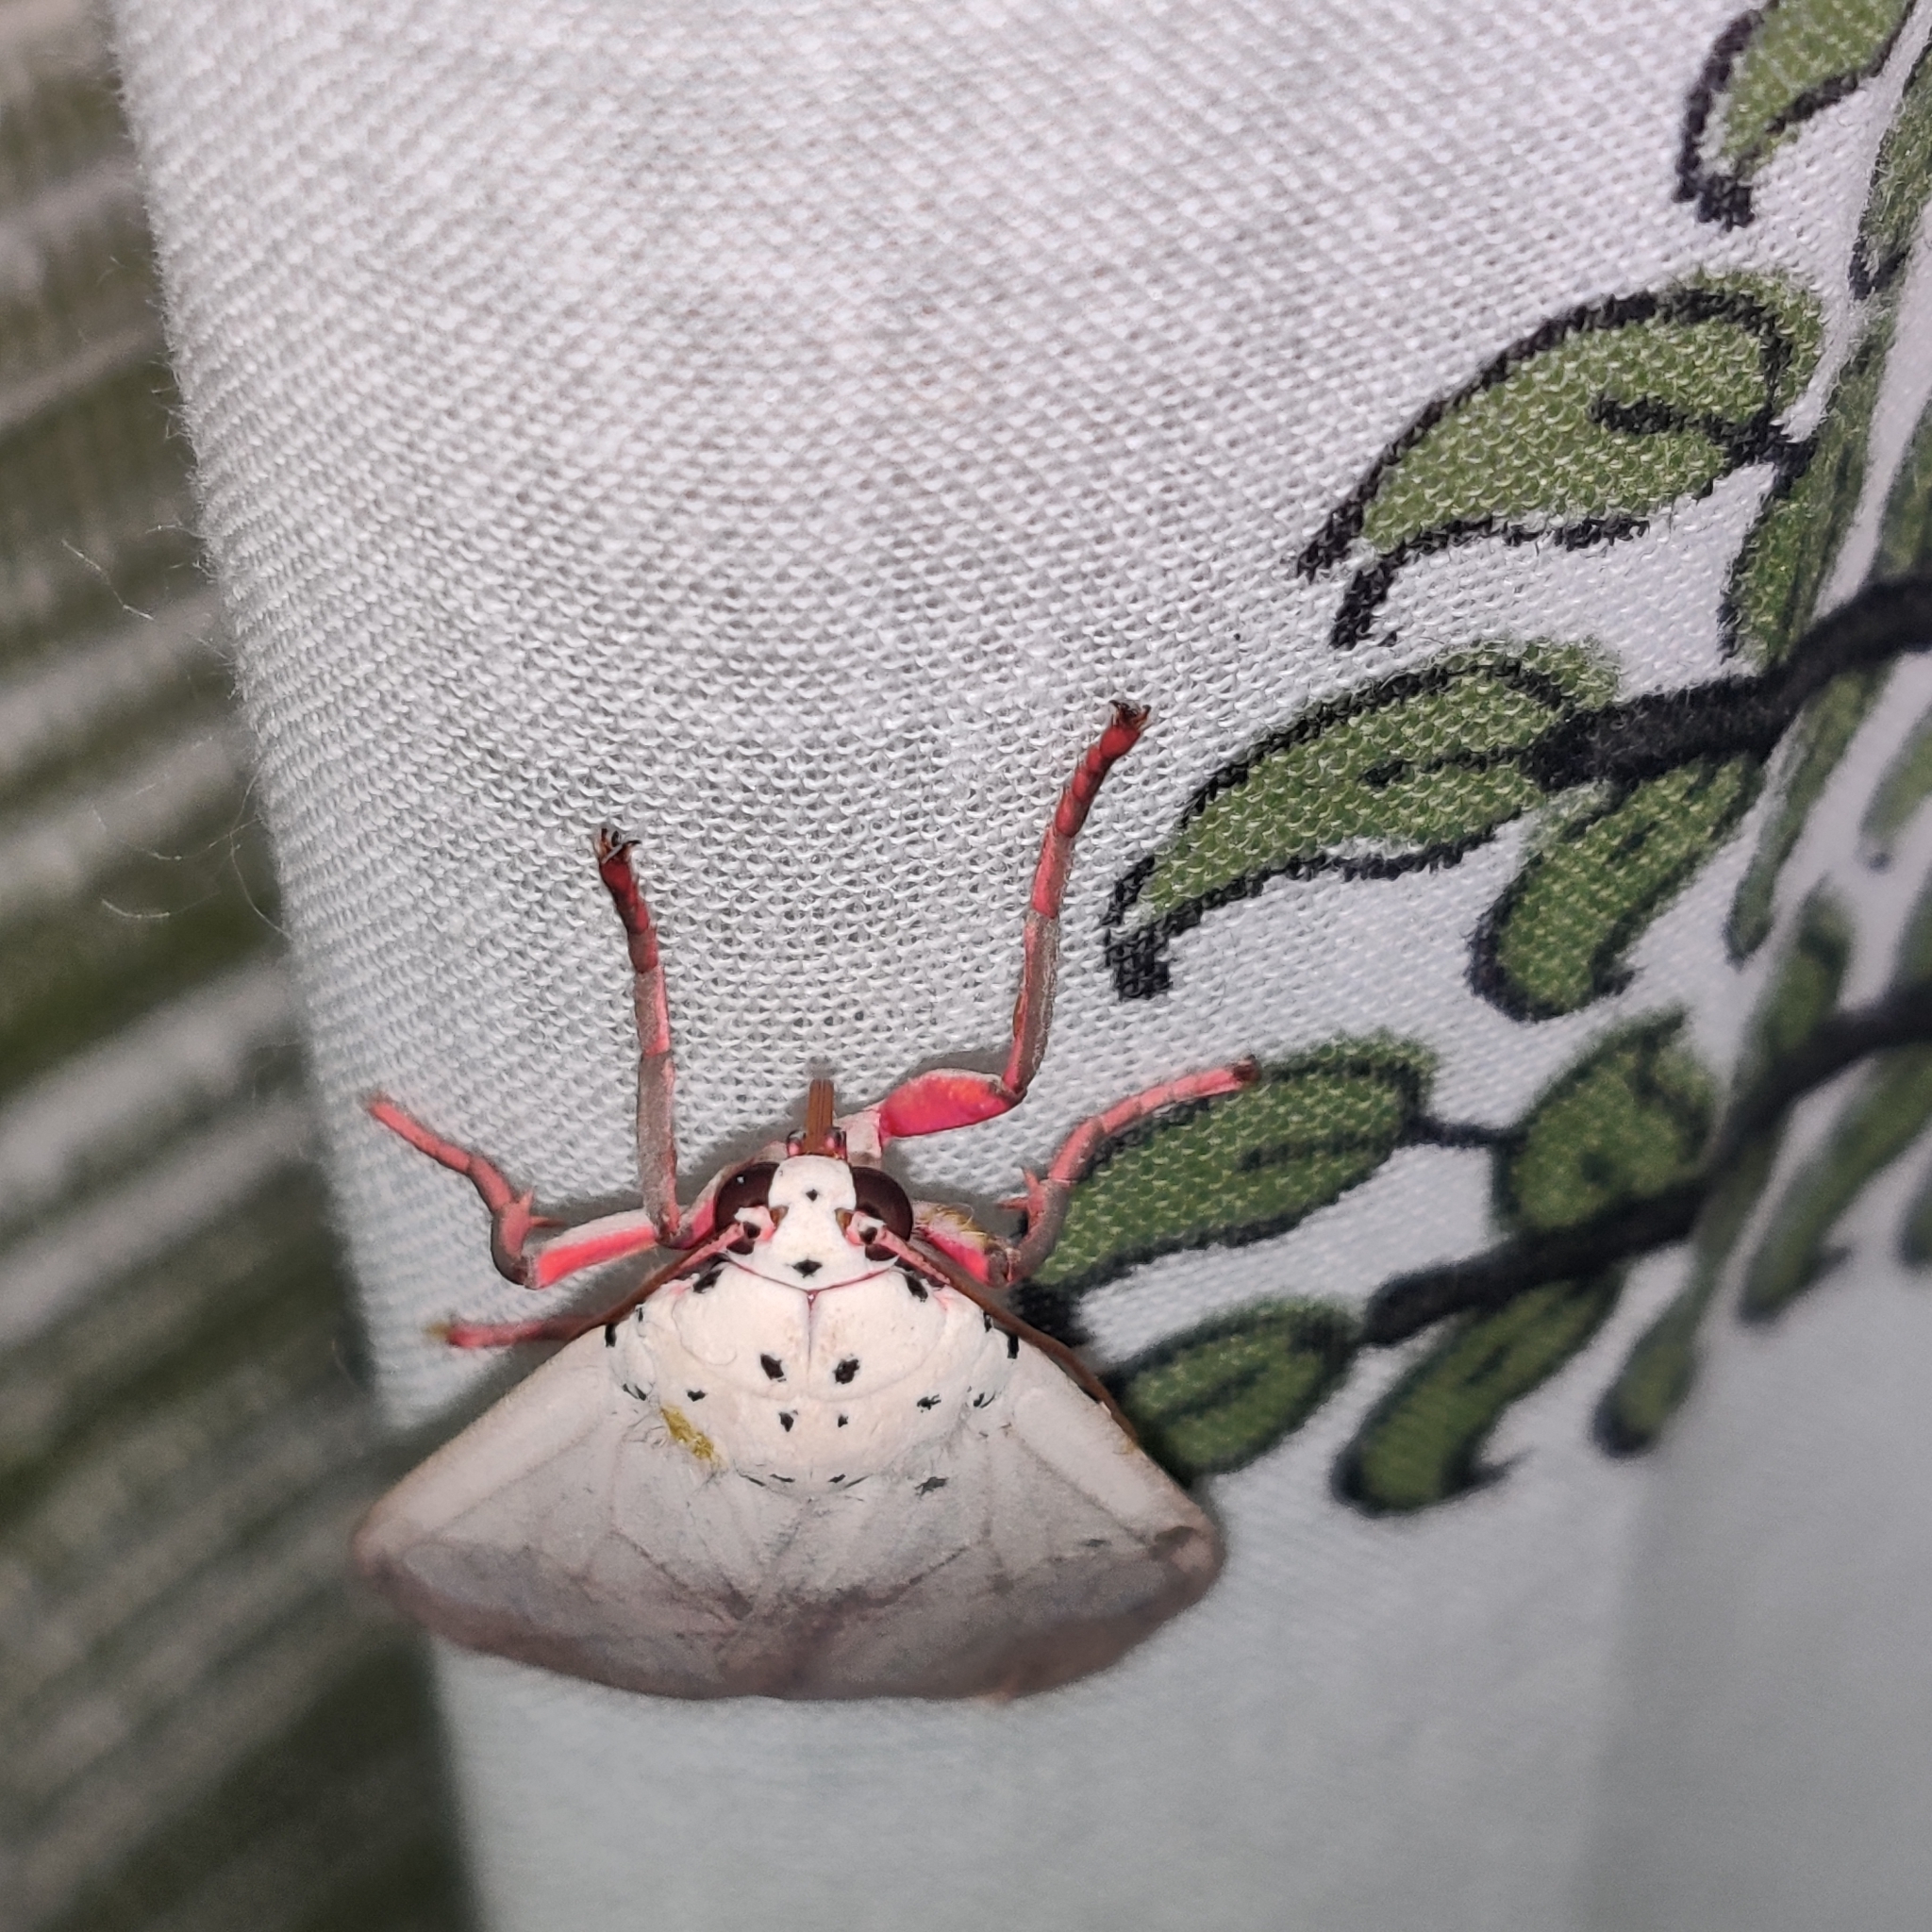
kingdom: Animalia
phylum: Arthropoda
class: Insecta
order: Lepidoptera
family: Erebidae
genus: Amerila
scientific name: Amerila astreus
